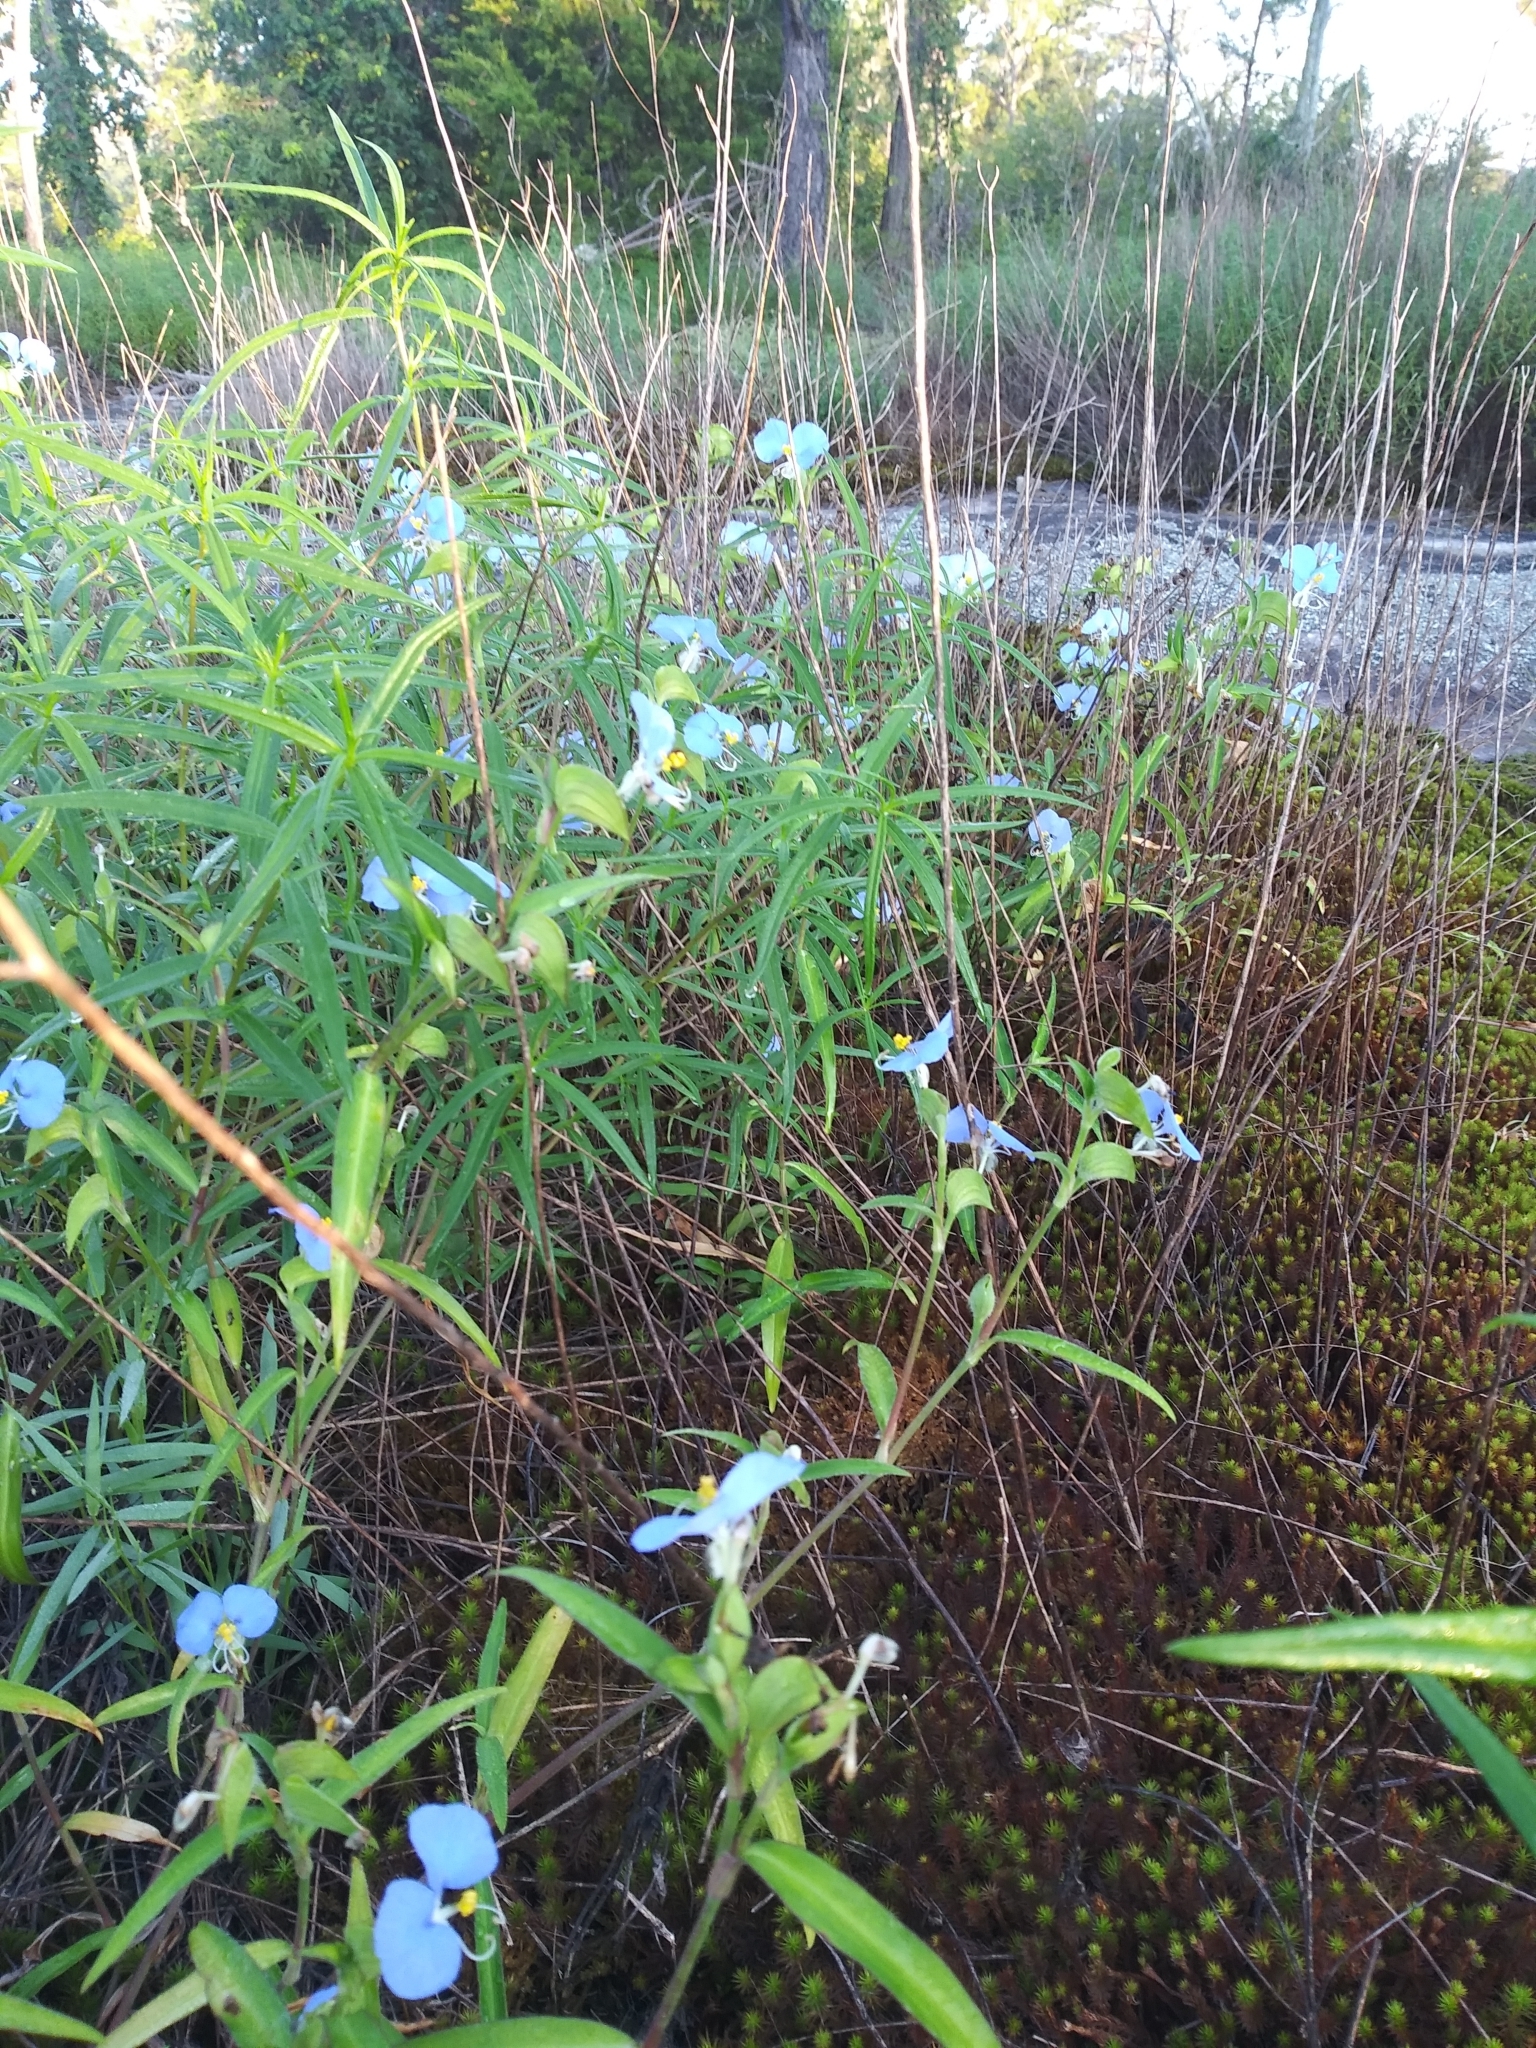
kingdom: Plantae
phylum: Tracheophyta
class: Liliopsida
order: Commelinales
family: Commelinaceae
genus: Commelina
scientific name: Commelina erecta
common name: Blousel blommetjie
